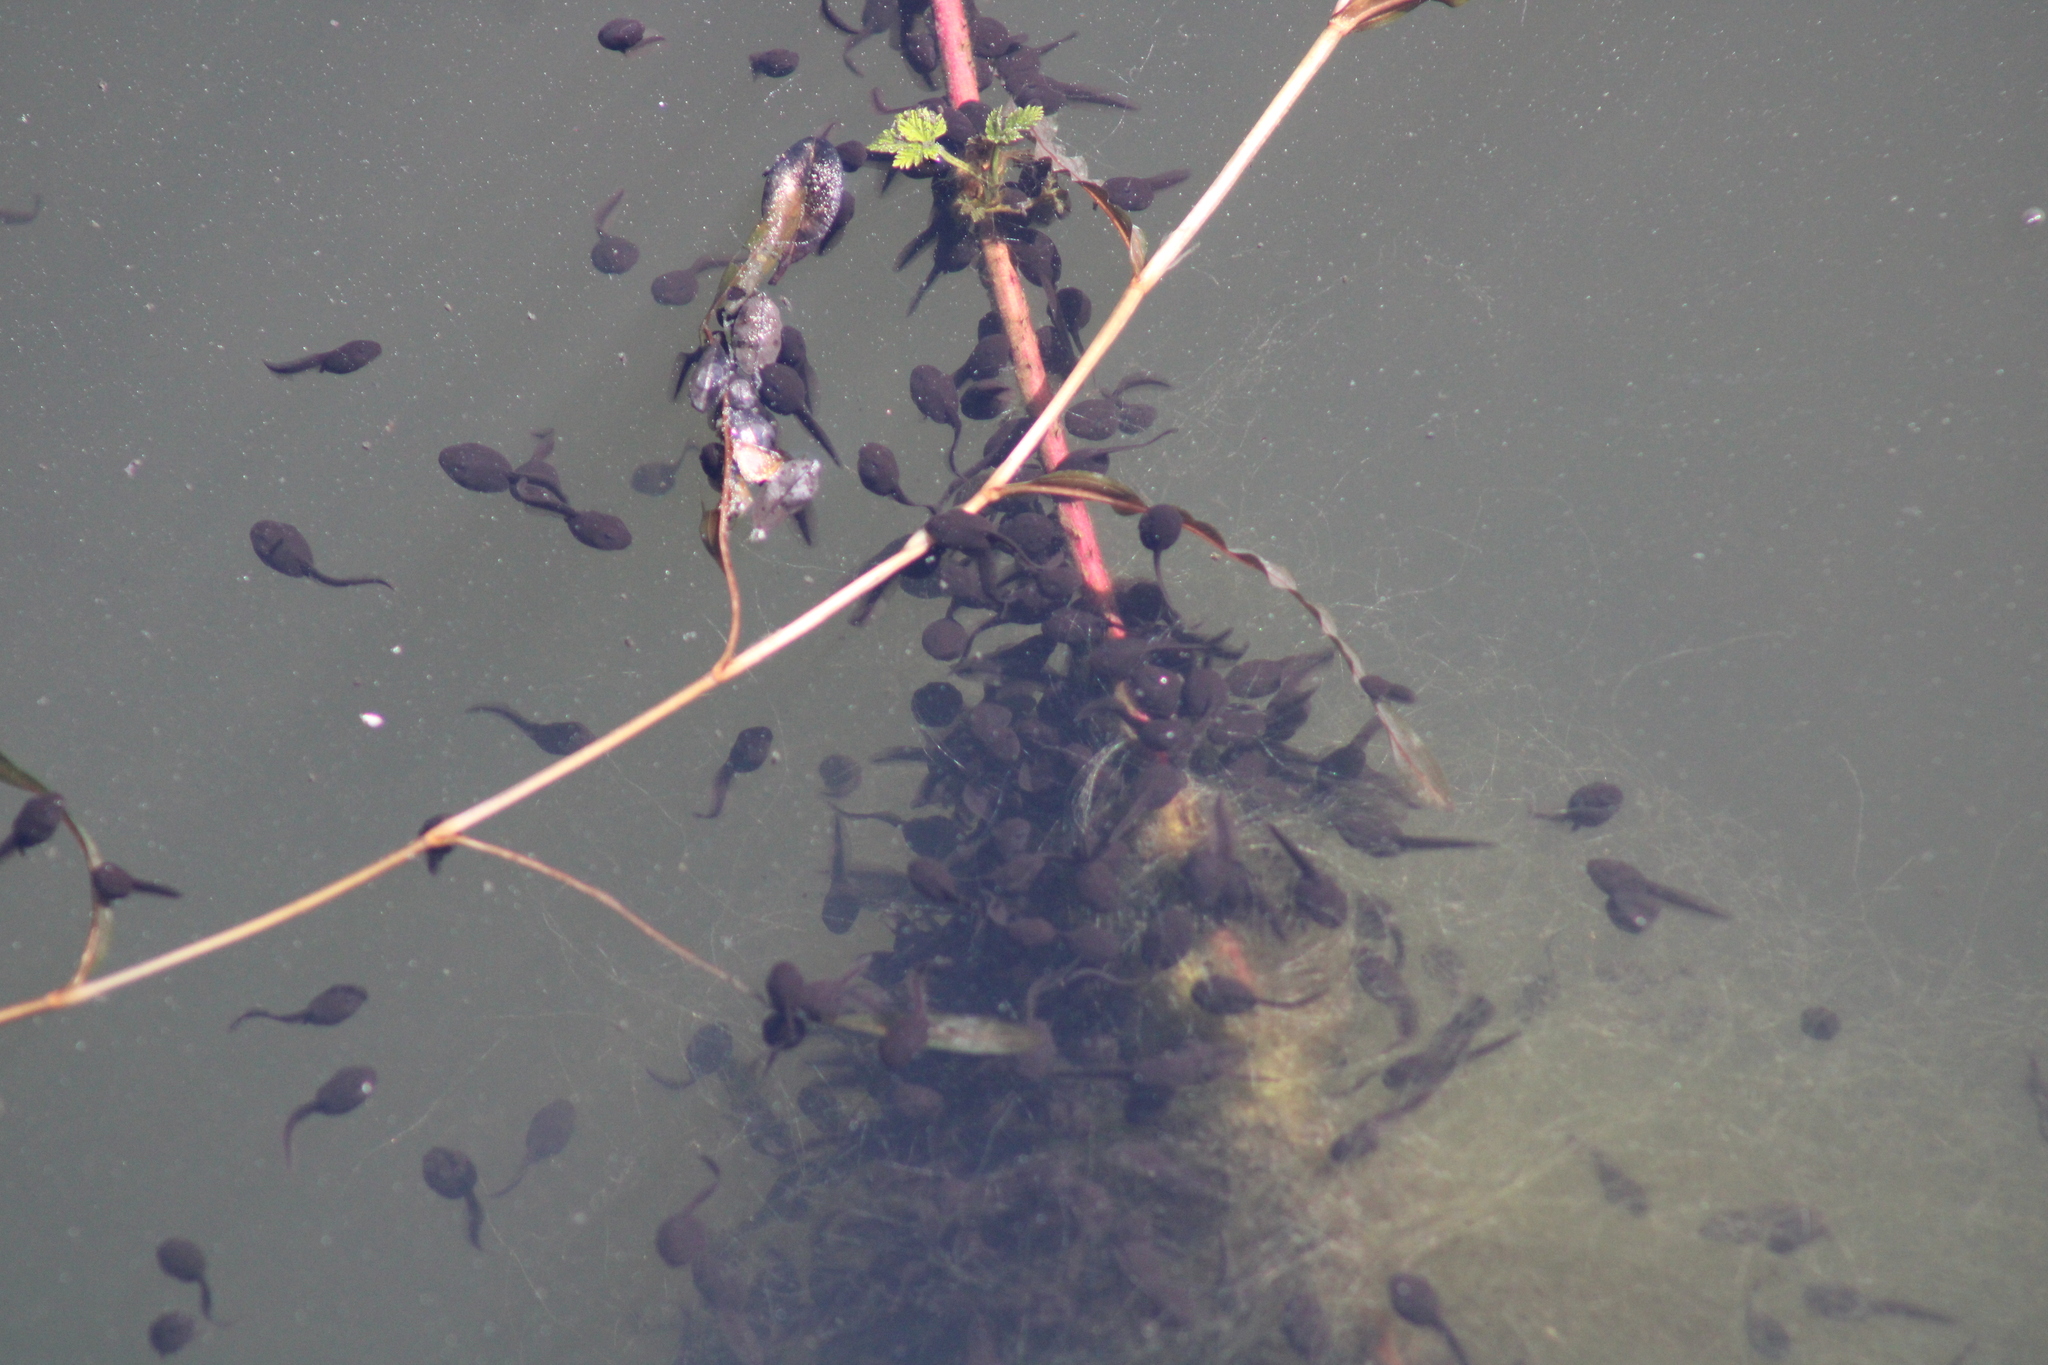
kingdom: Animalia
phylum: Chordata
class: Amphibia
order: Anura
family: Bufonidae
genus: Bufo
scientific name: Bufo bufo
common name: Common toad
